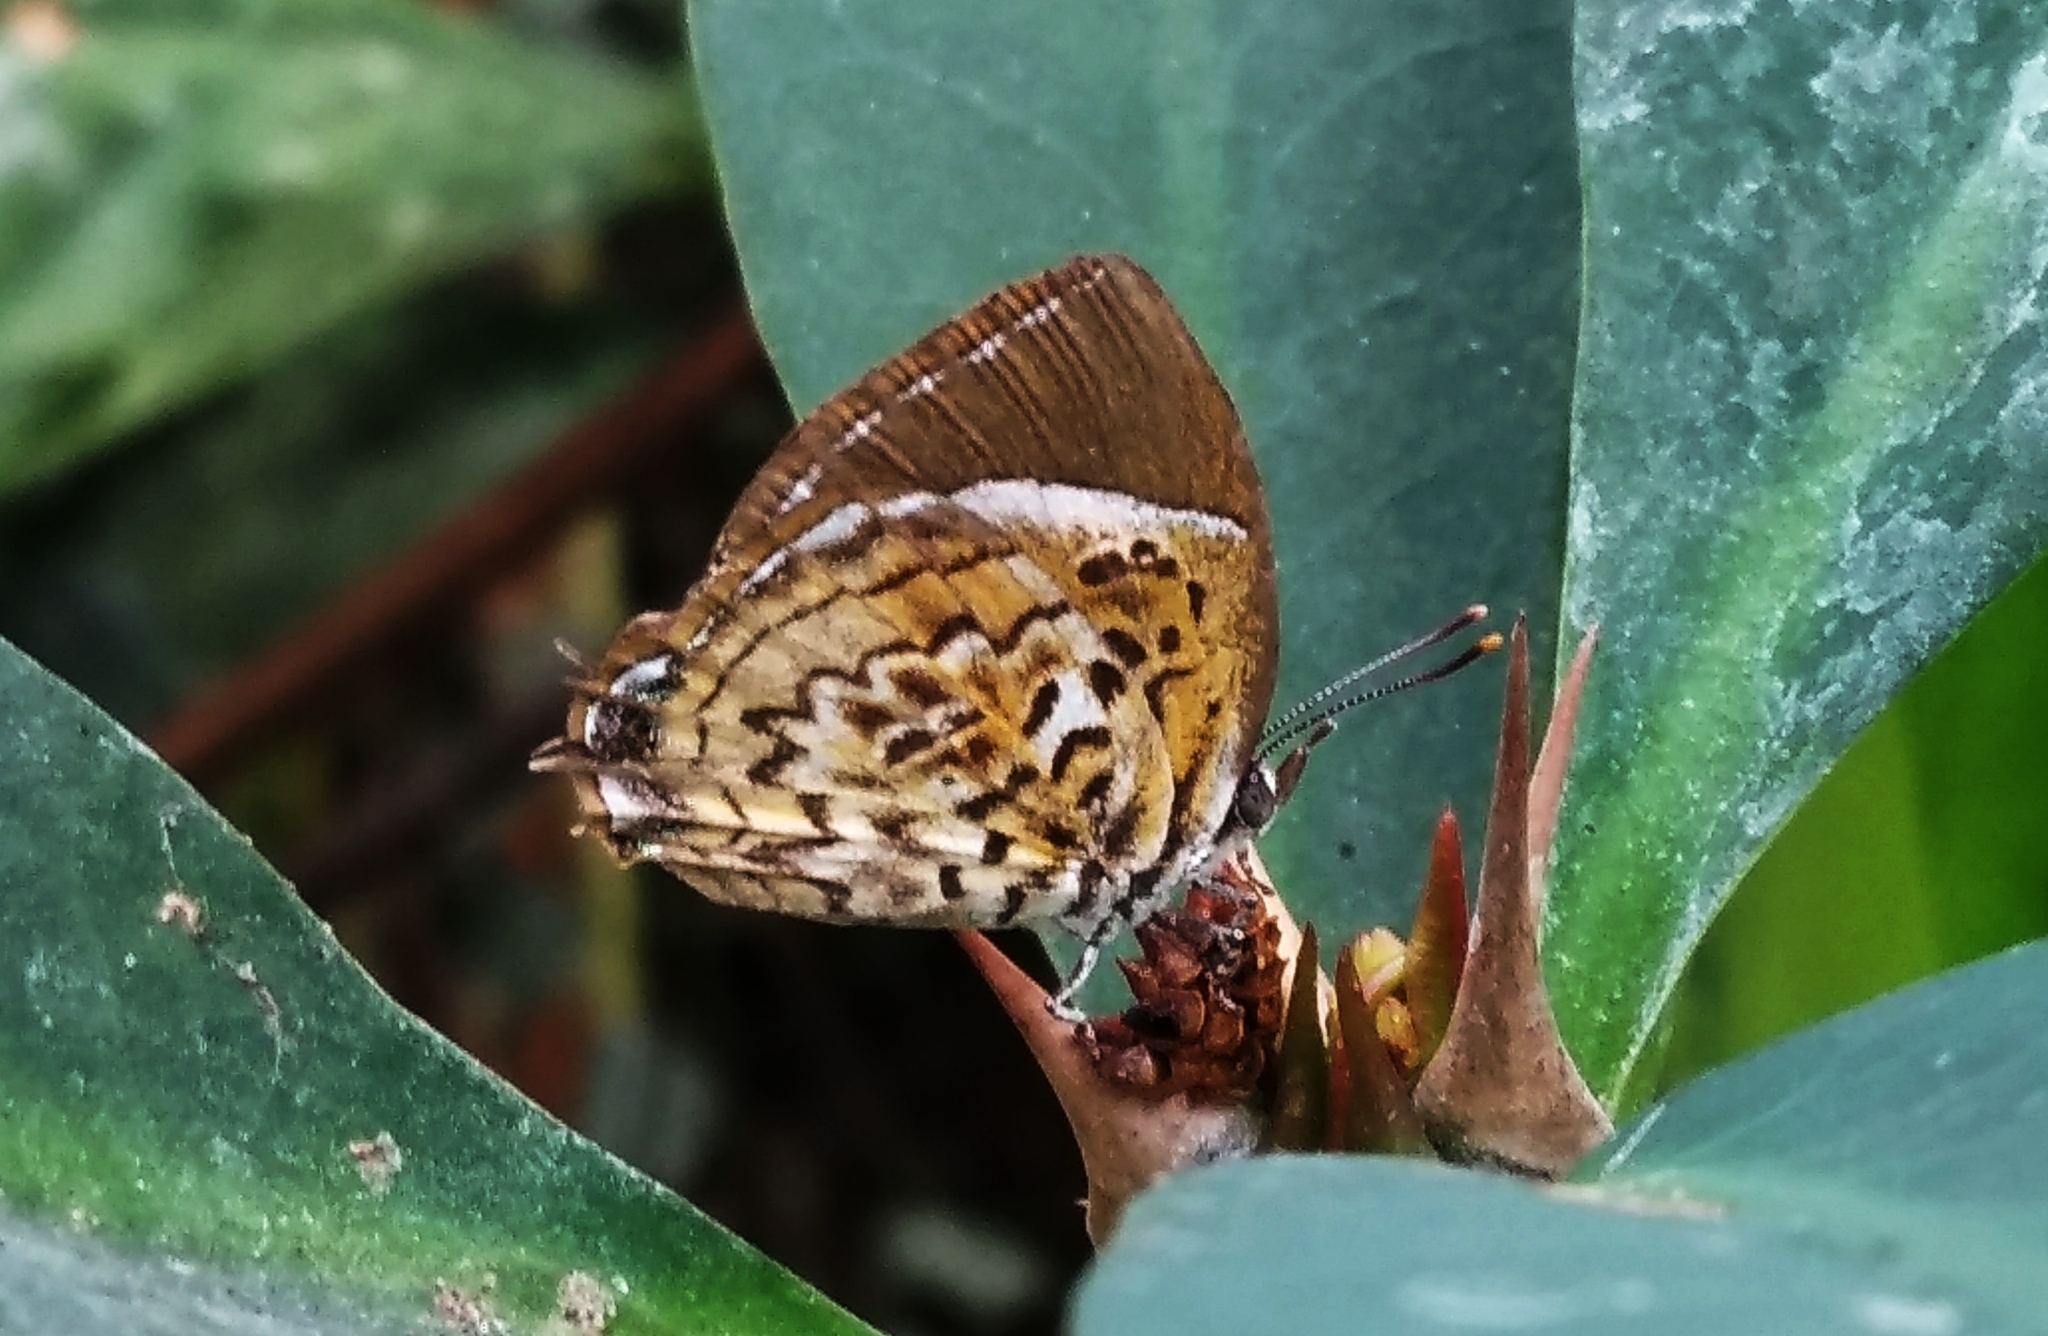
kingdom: Animalia
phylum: Arthropoda
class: Insecta
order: Lepidoptera
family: Lycaenidae
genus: Rathinda
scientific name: Rathinda amor
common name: Monkey puzzle
